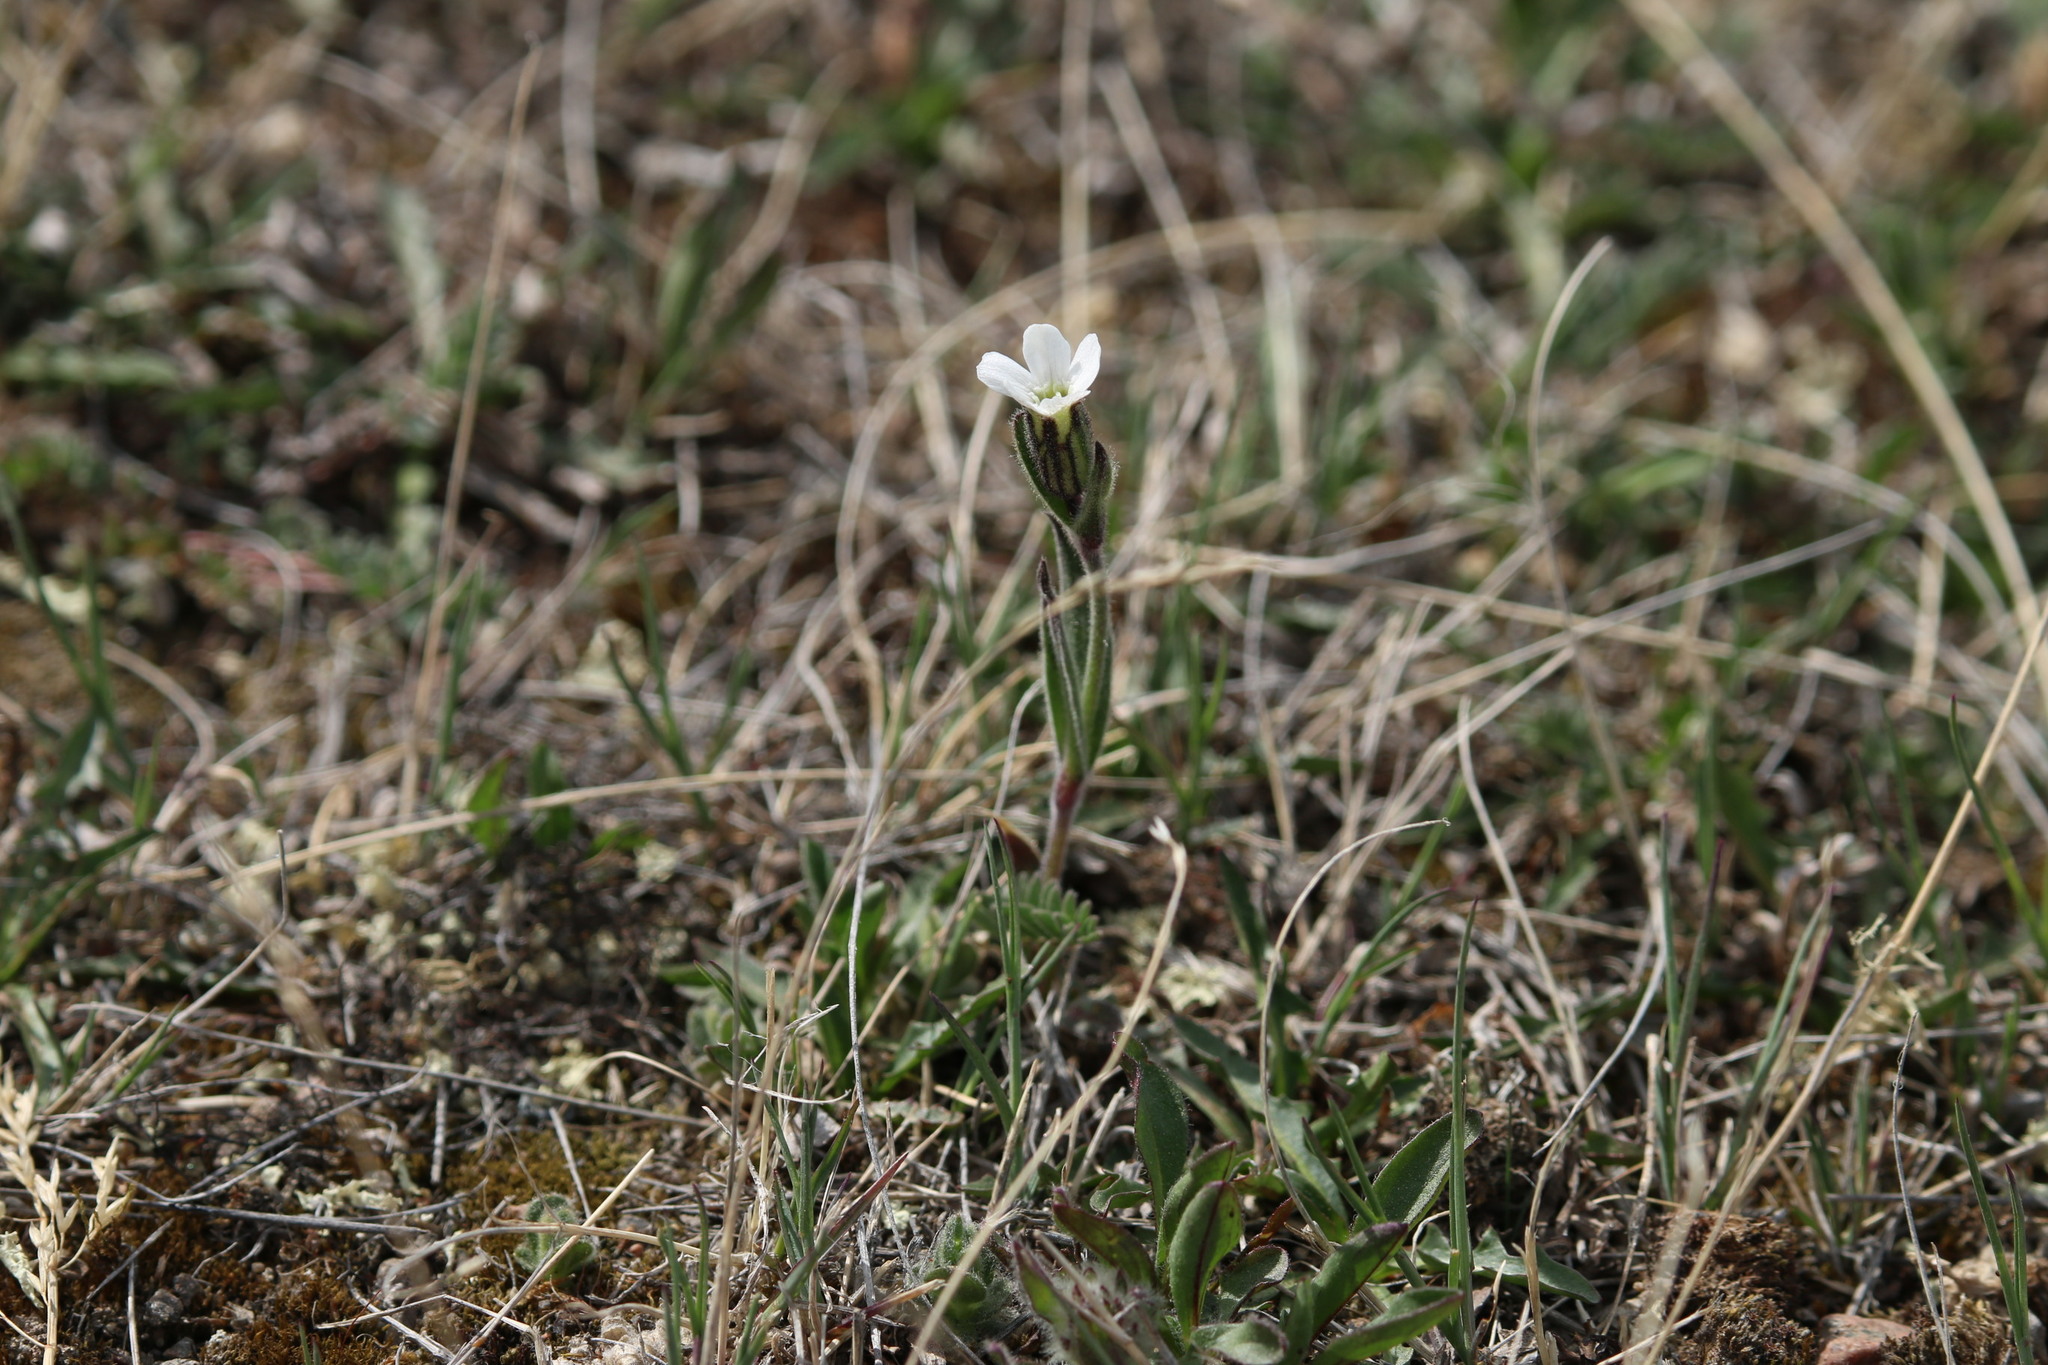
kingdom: Plantae
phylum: Tracheophyta
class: Magnoliopsida
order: Caryophyllales
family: Caryophyllaceae
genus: Silene
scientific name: Silene involucrata
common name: Greater arctic campion
